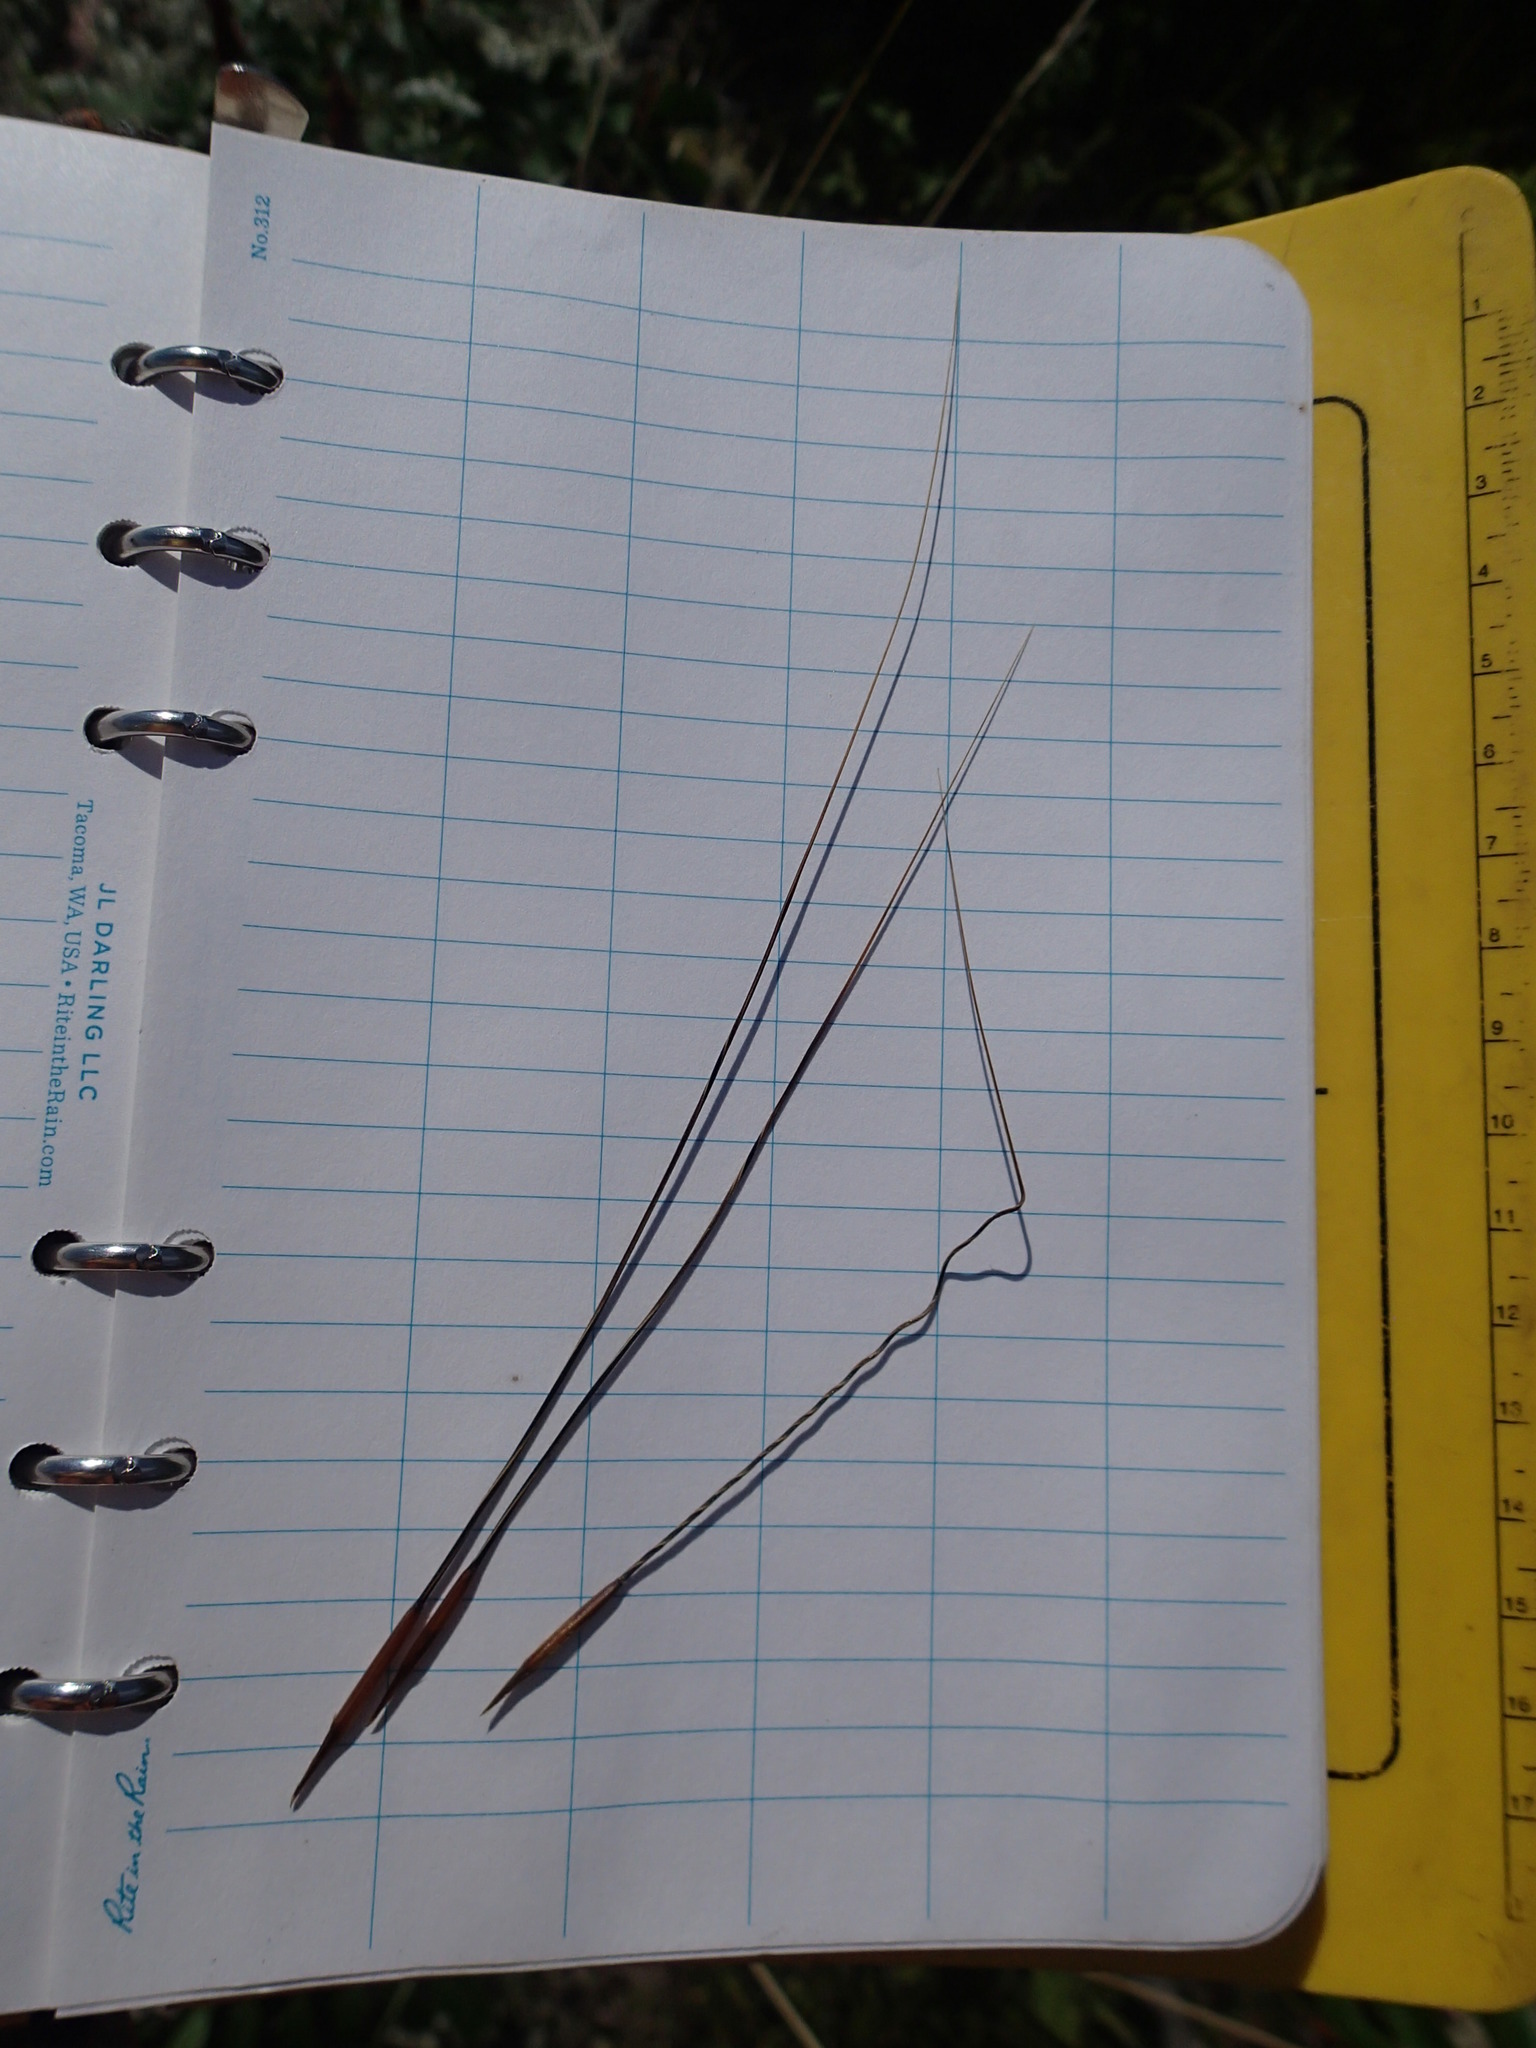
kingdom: Plantae
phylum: Tracheophyta
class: Liliopsida
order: Poales
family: Poaceae
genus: Hesperostipa
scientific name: Hesperostipa spartea
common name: Porcupine grass
